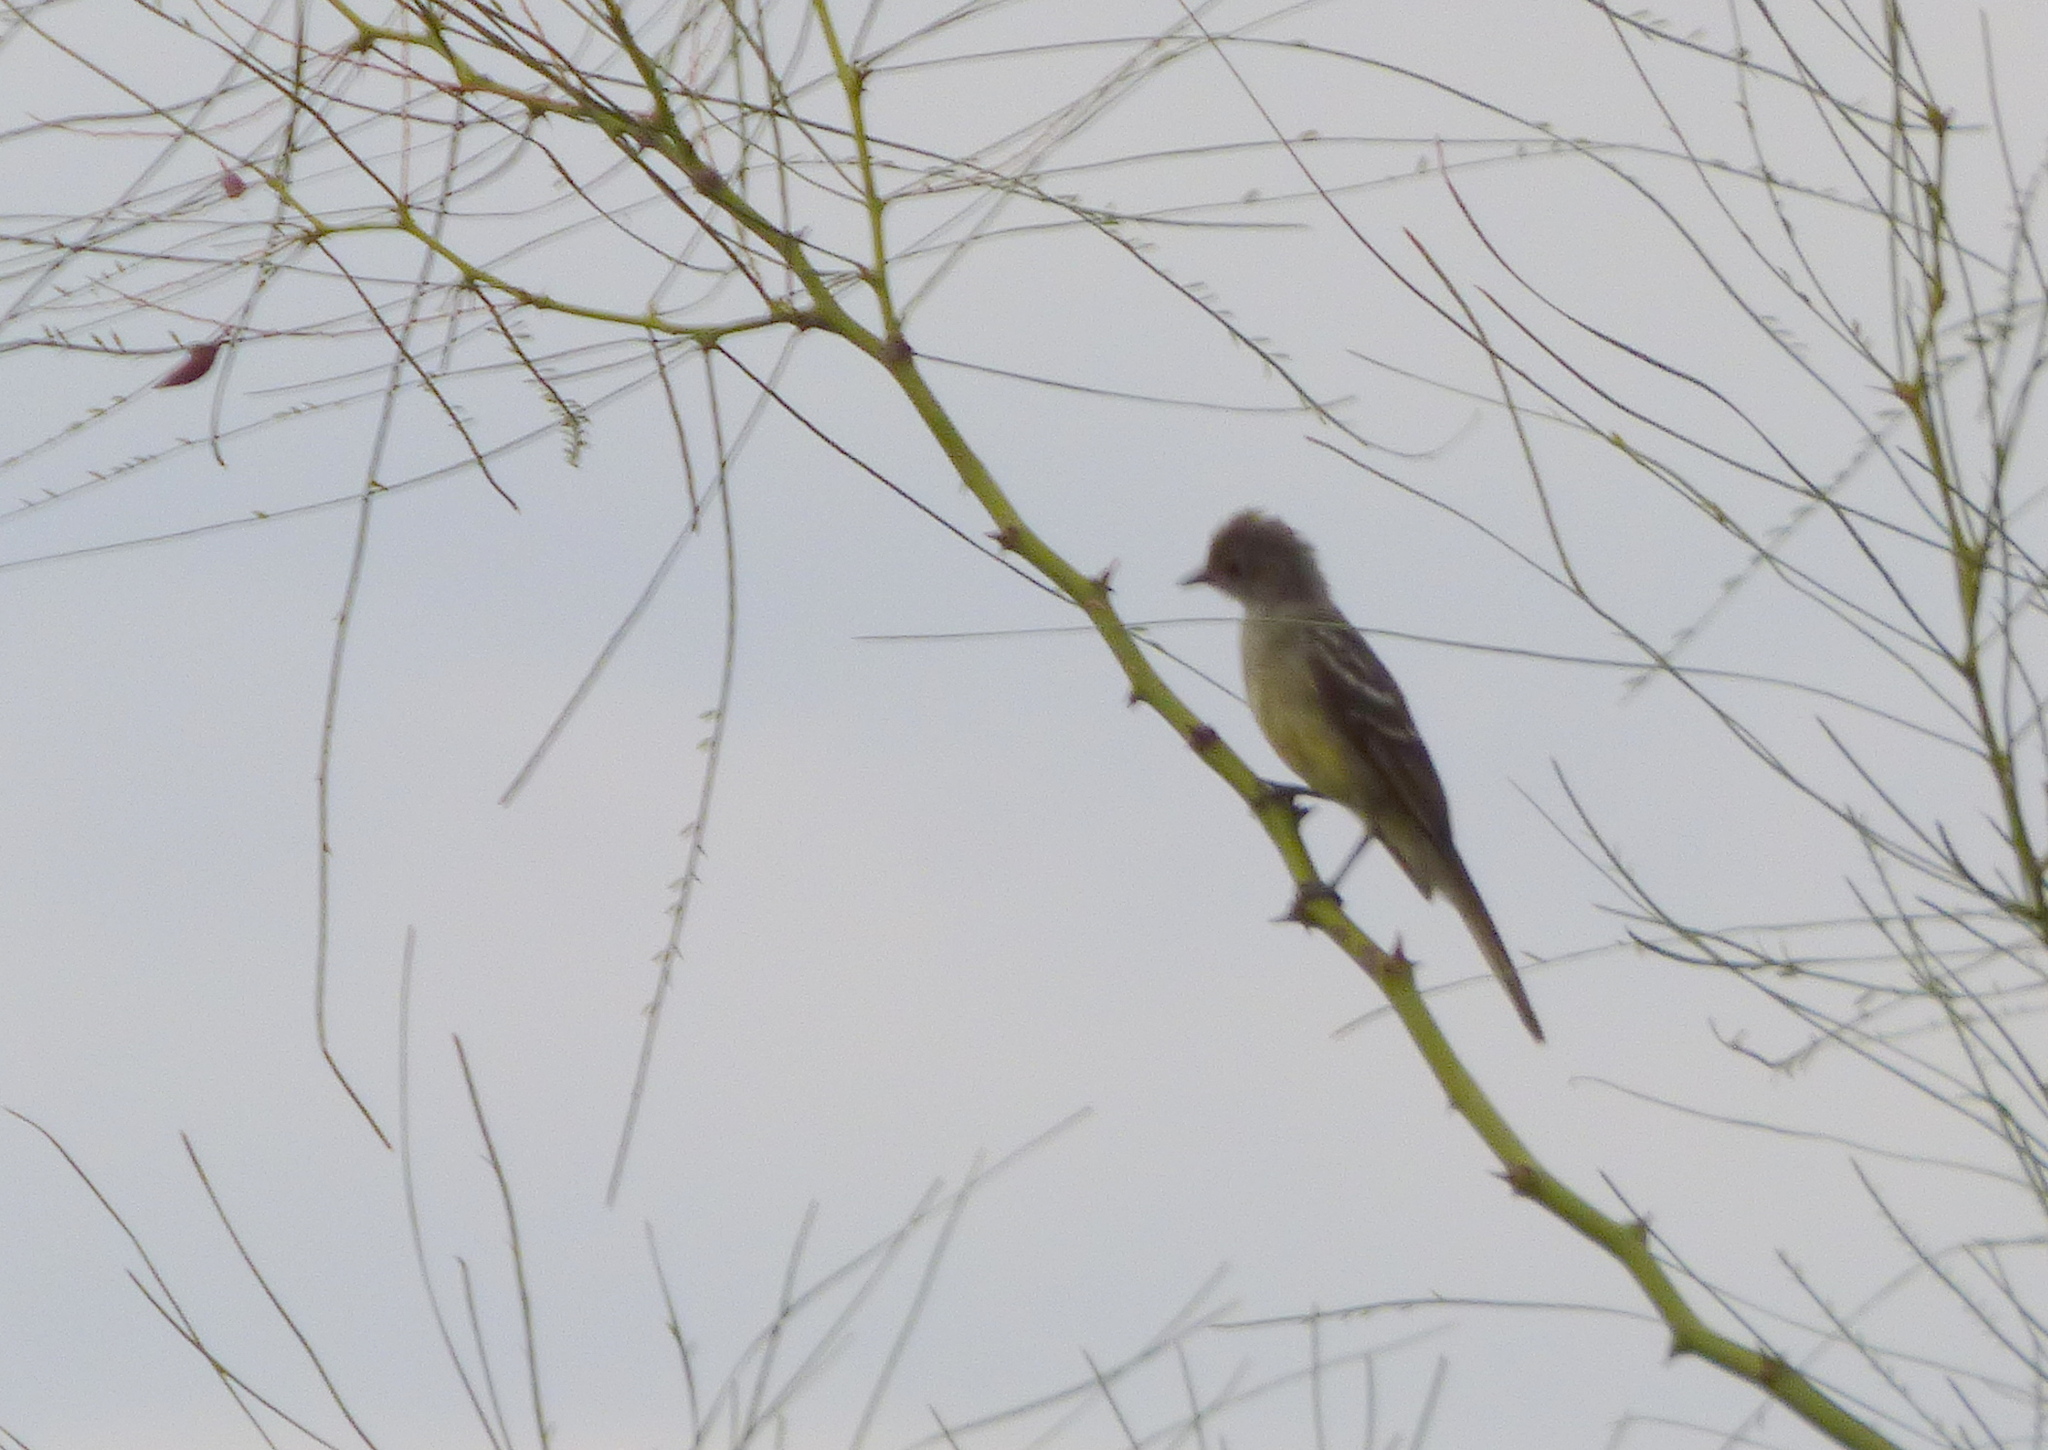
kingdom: Animalia
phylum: Chordata
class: Aves
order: Passeriformes
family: Tyrannidae
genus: Elaenia
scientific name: Elaenia spectabilis
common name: Large elaenia
